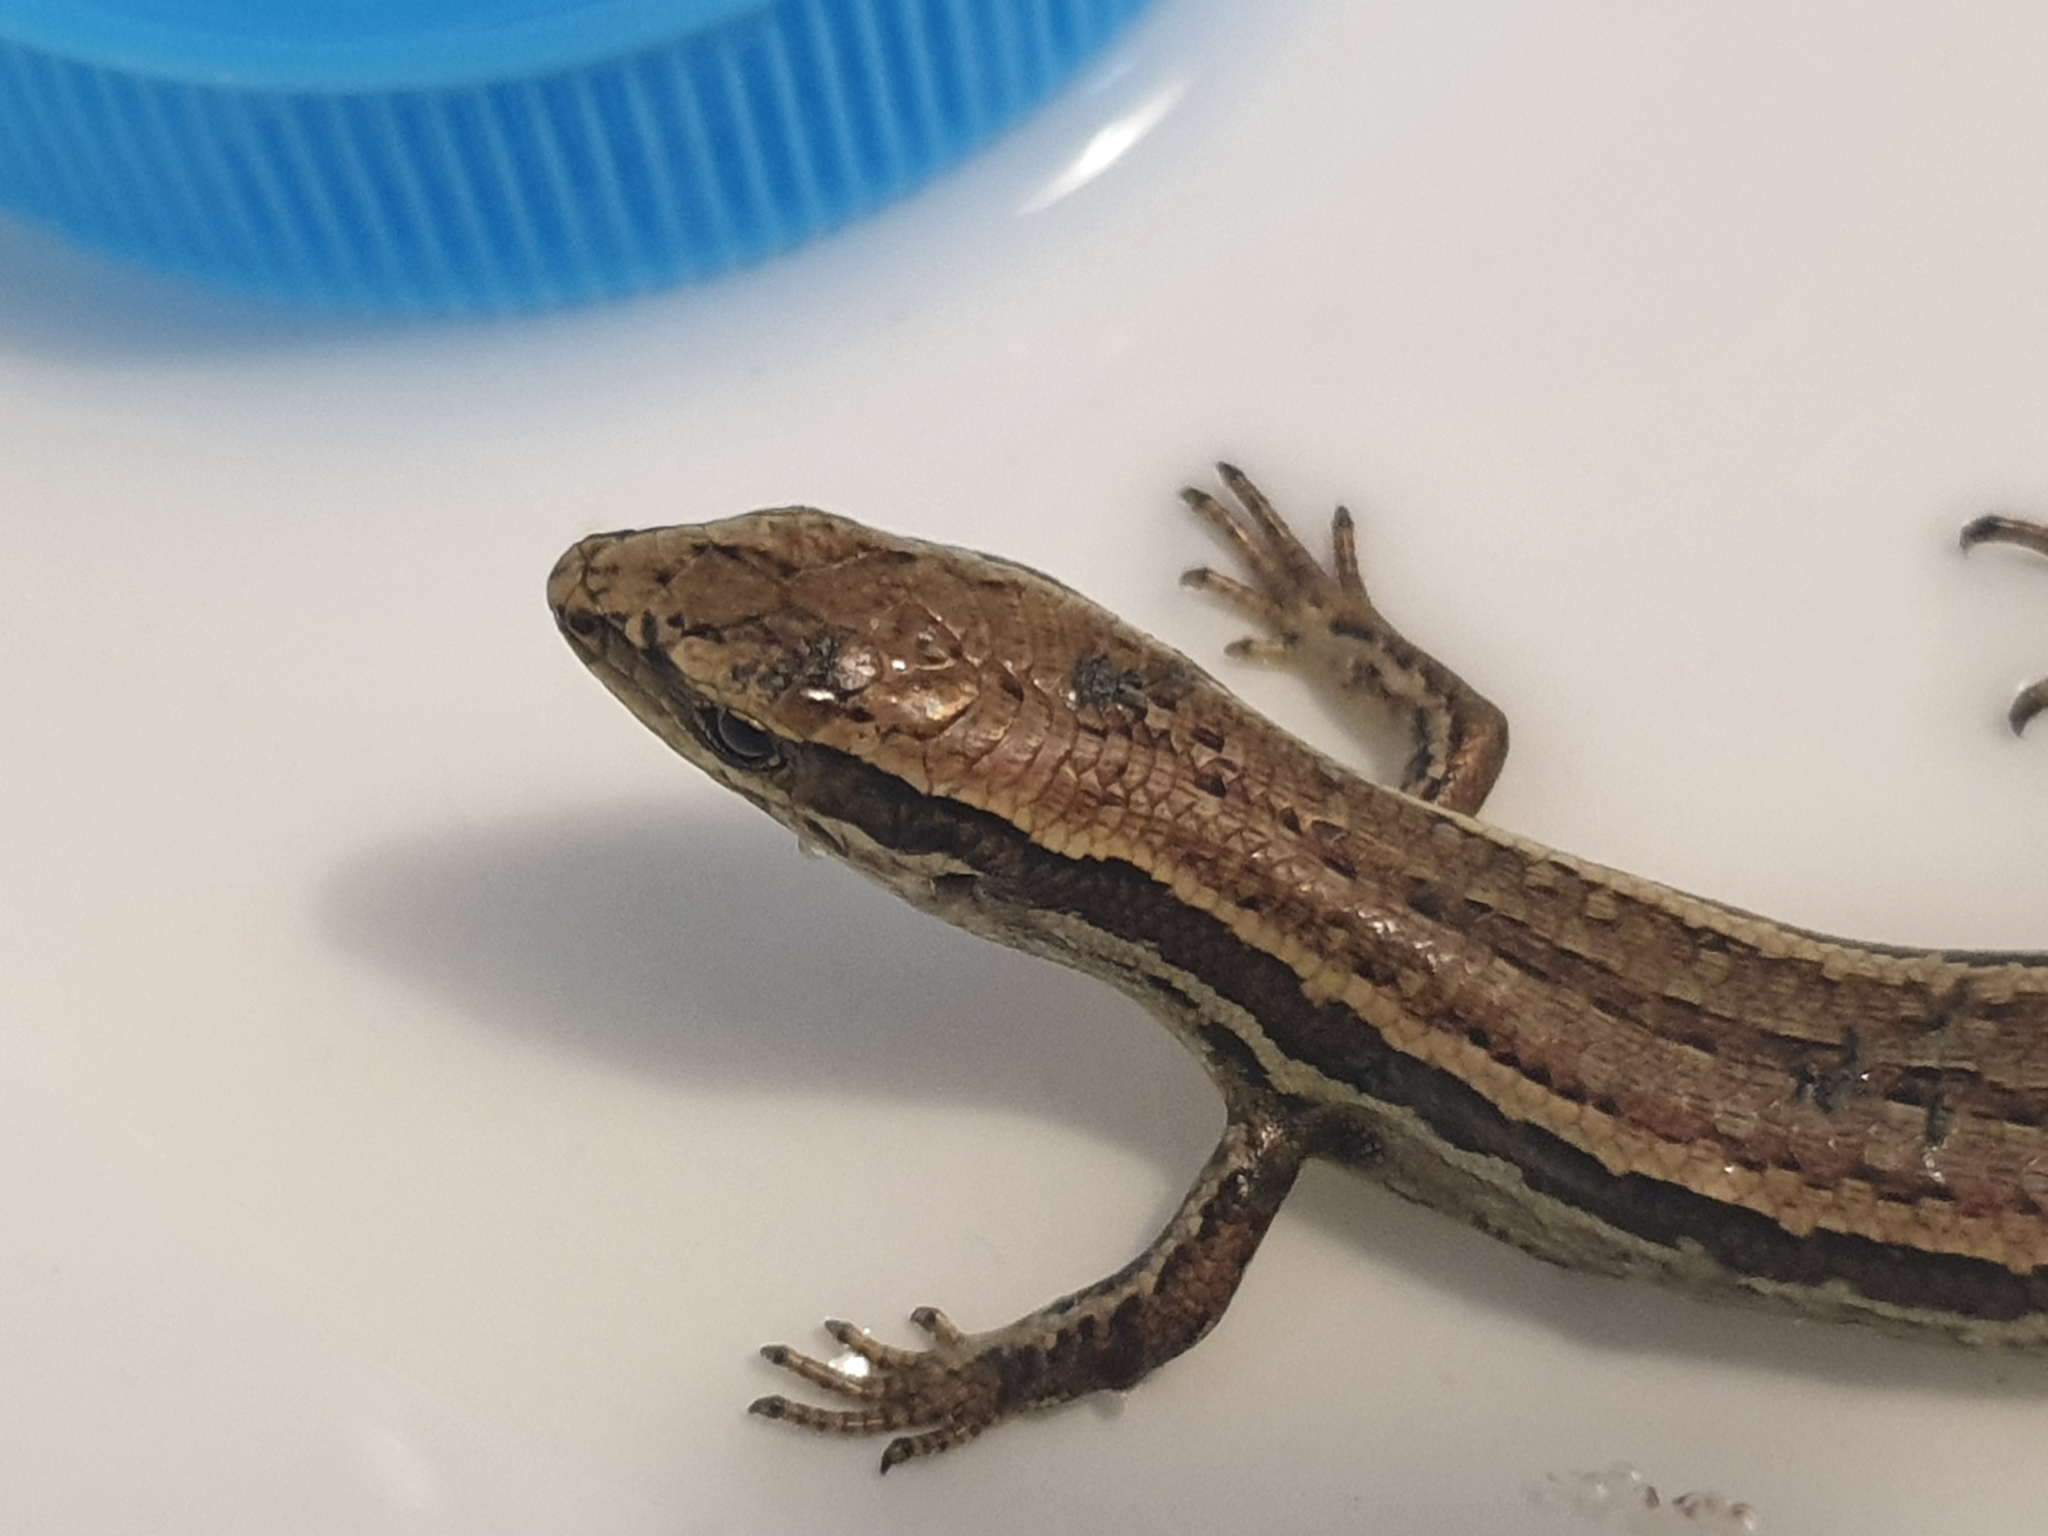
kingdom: Animalia
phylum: Chordata
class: Squamata
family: Scincidae
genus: Oligosoma
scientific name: Oligosoma polychroma
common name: Common new zealand skink
